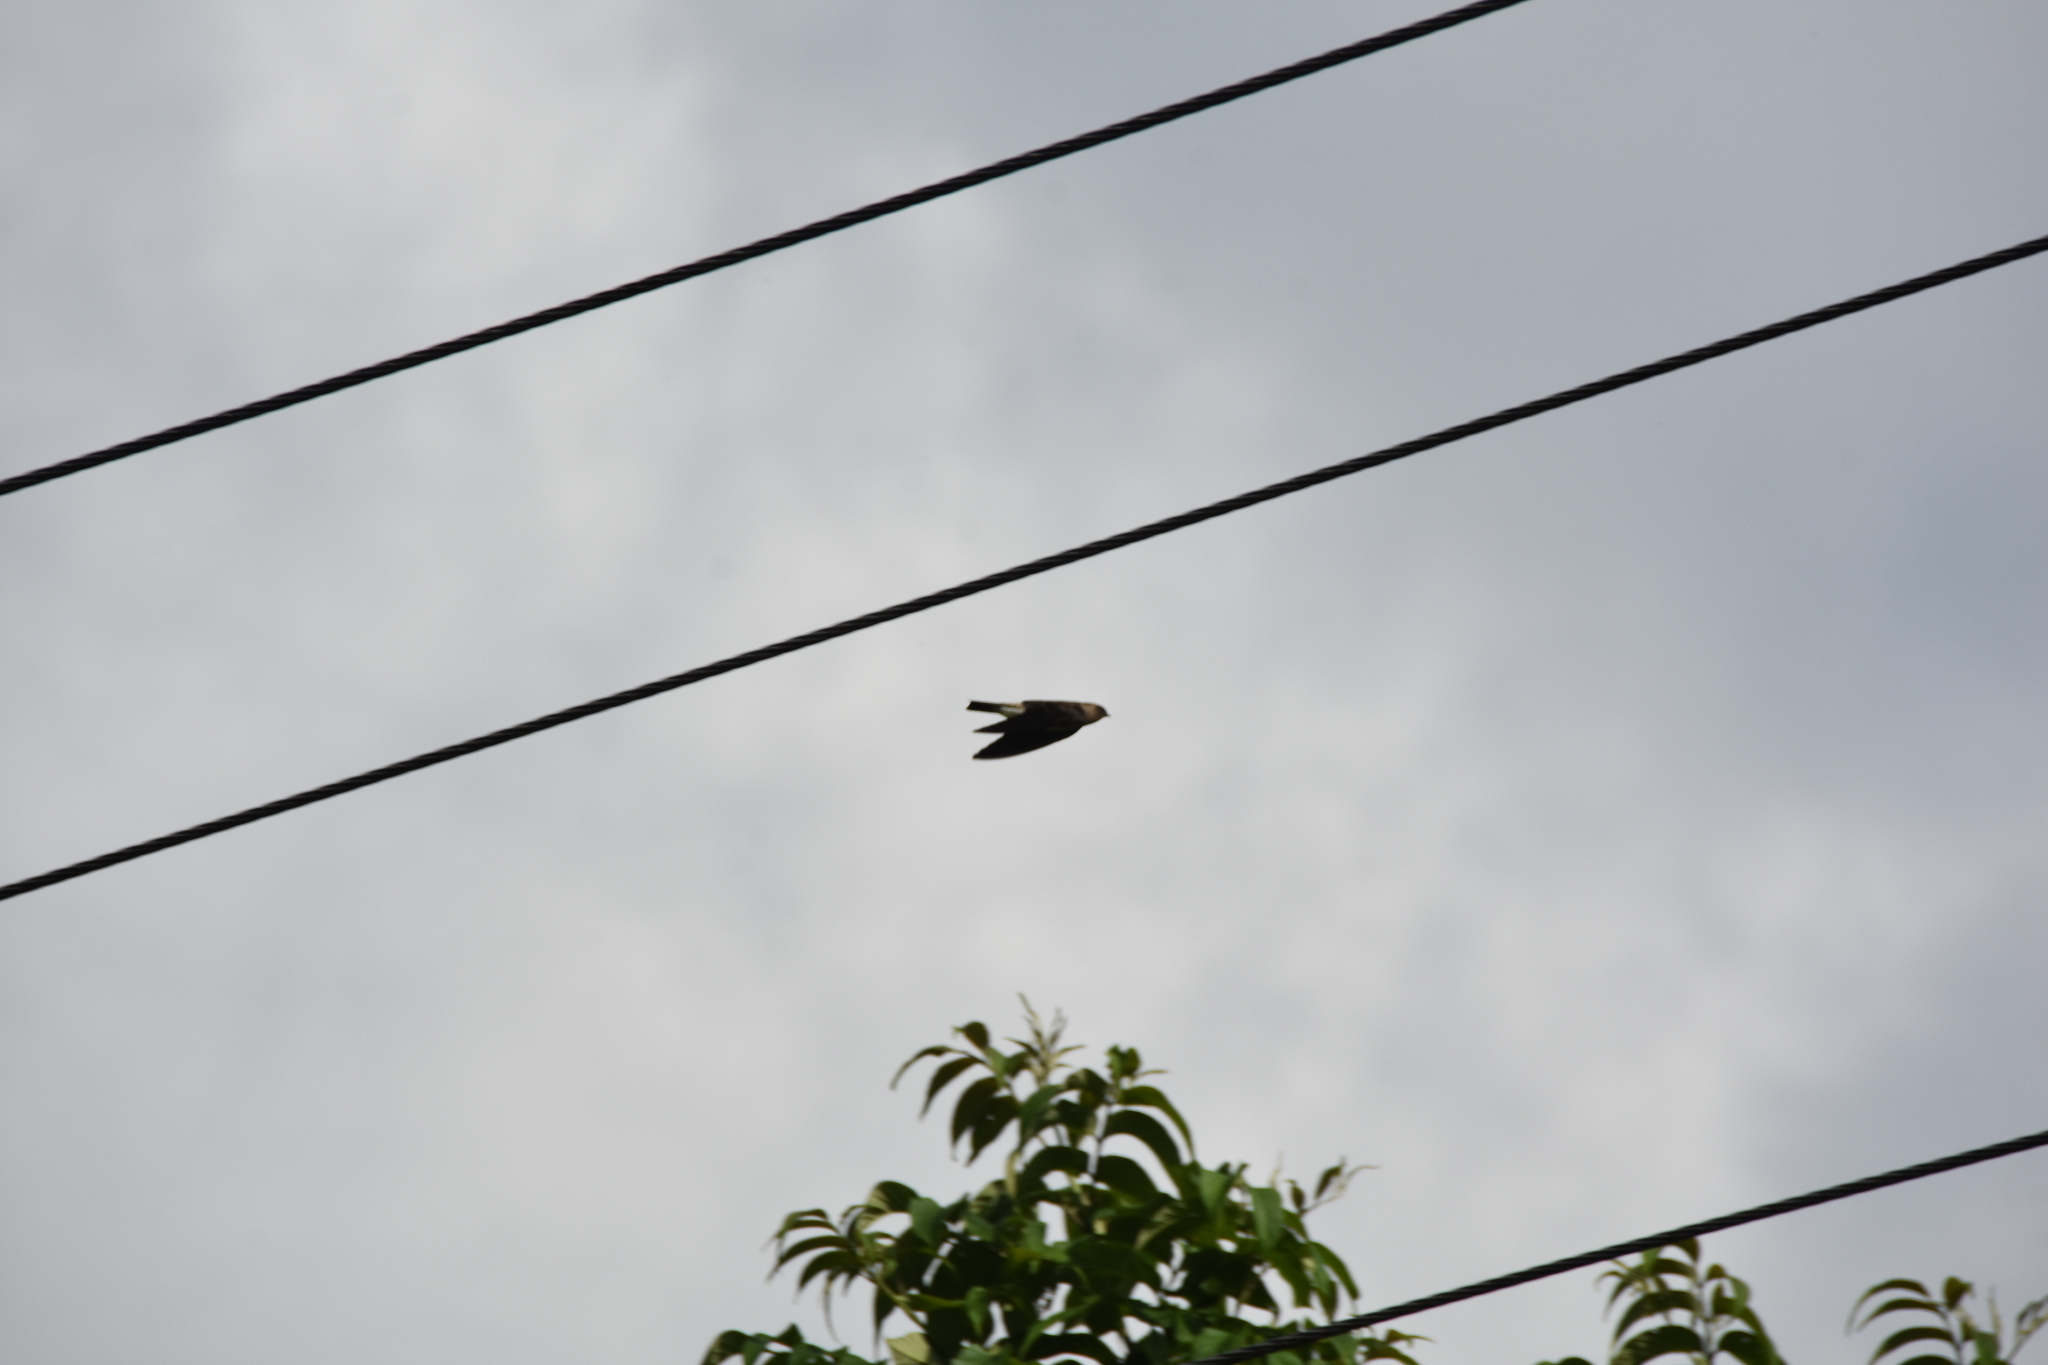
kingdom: Animalia
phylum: Chordata
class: Aves
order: Passeriformes
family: Hirundinidae
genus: Stelgidopteryx
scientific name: Stelgidopteryx ruficollis
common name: Southern rough-winged swallow
